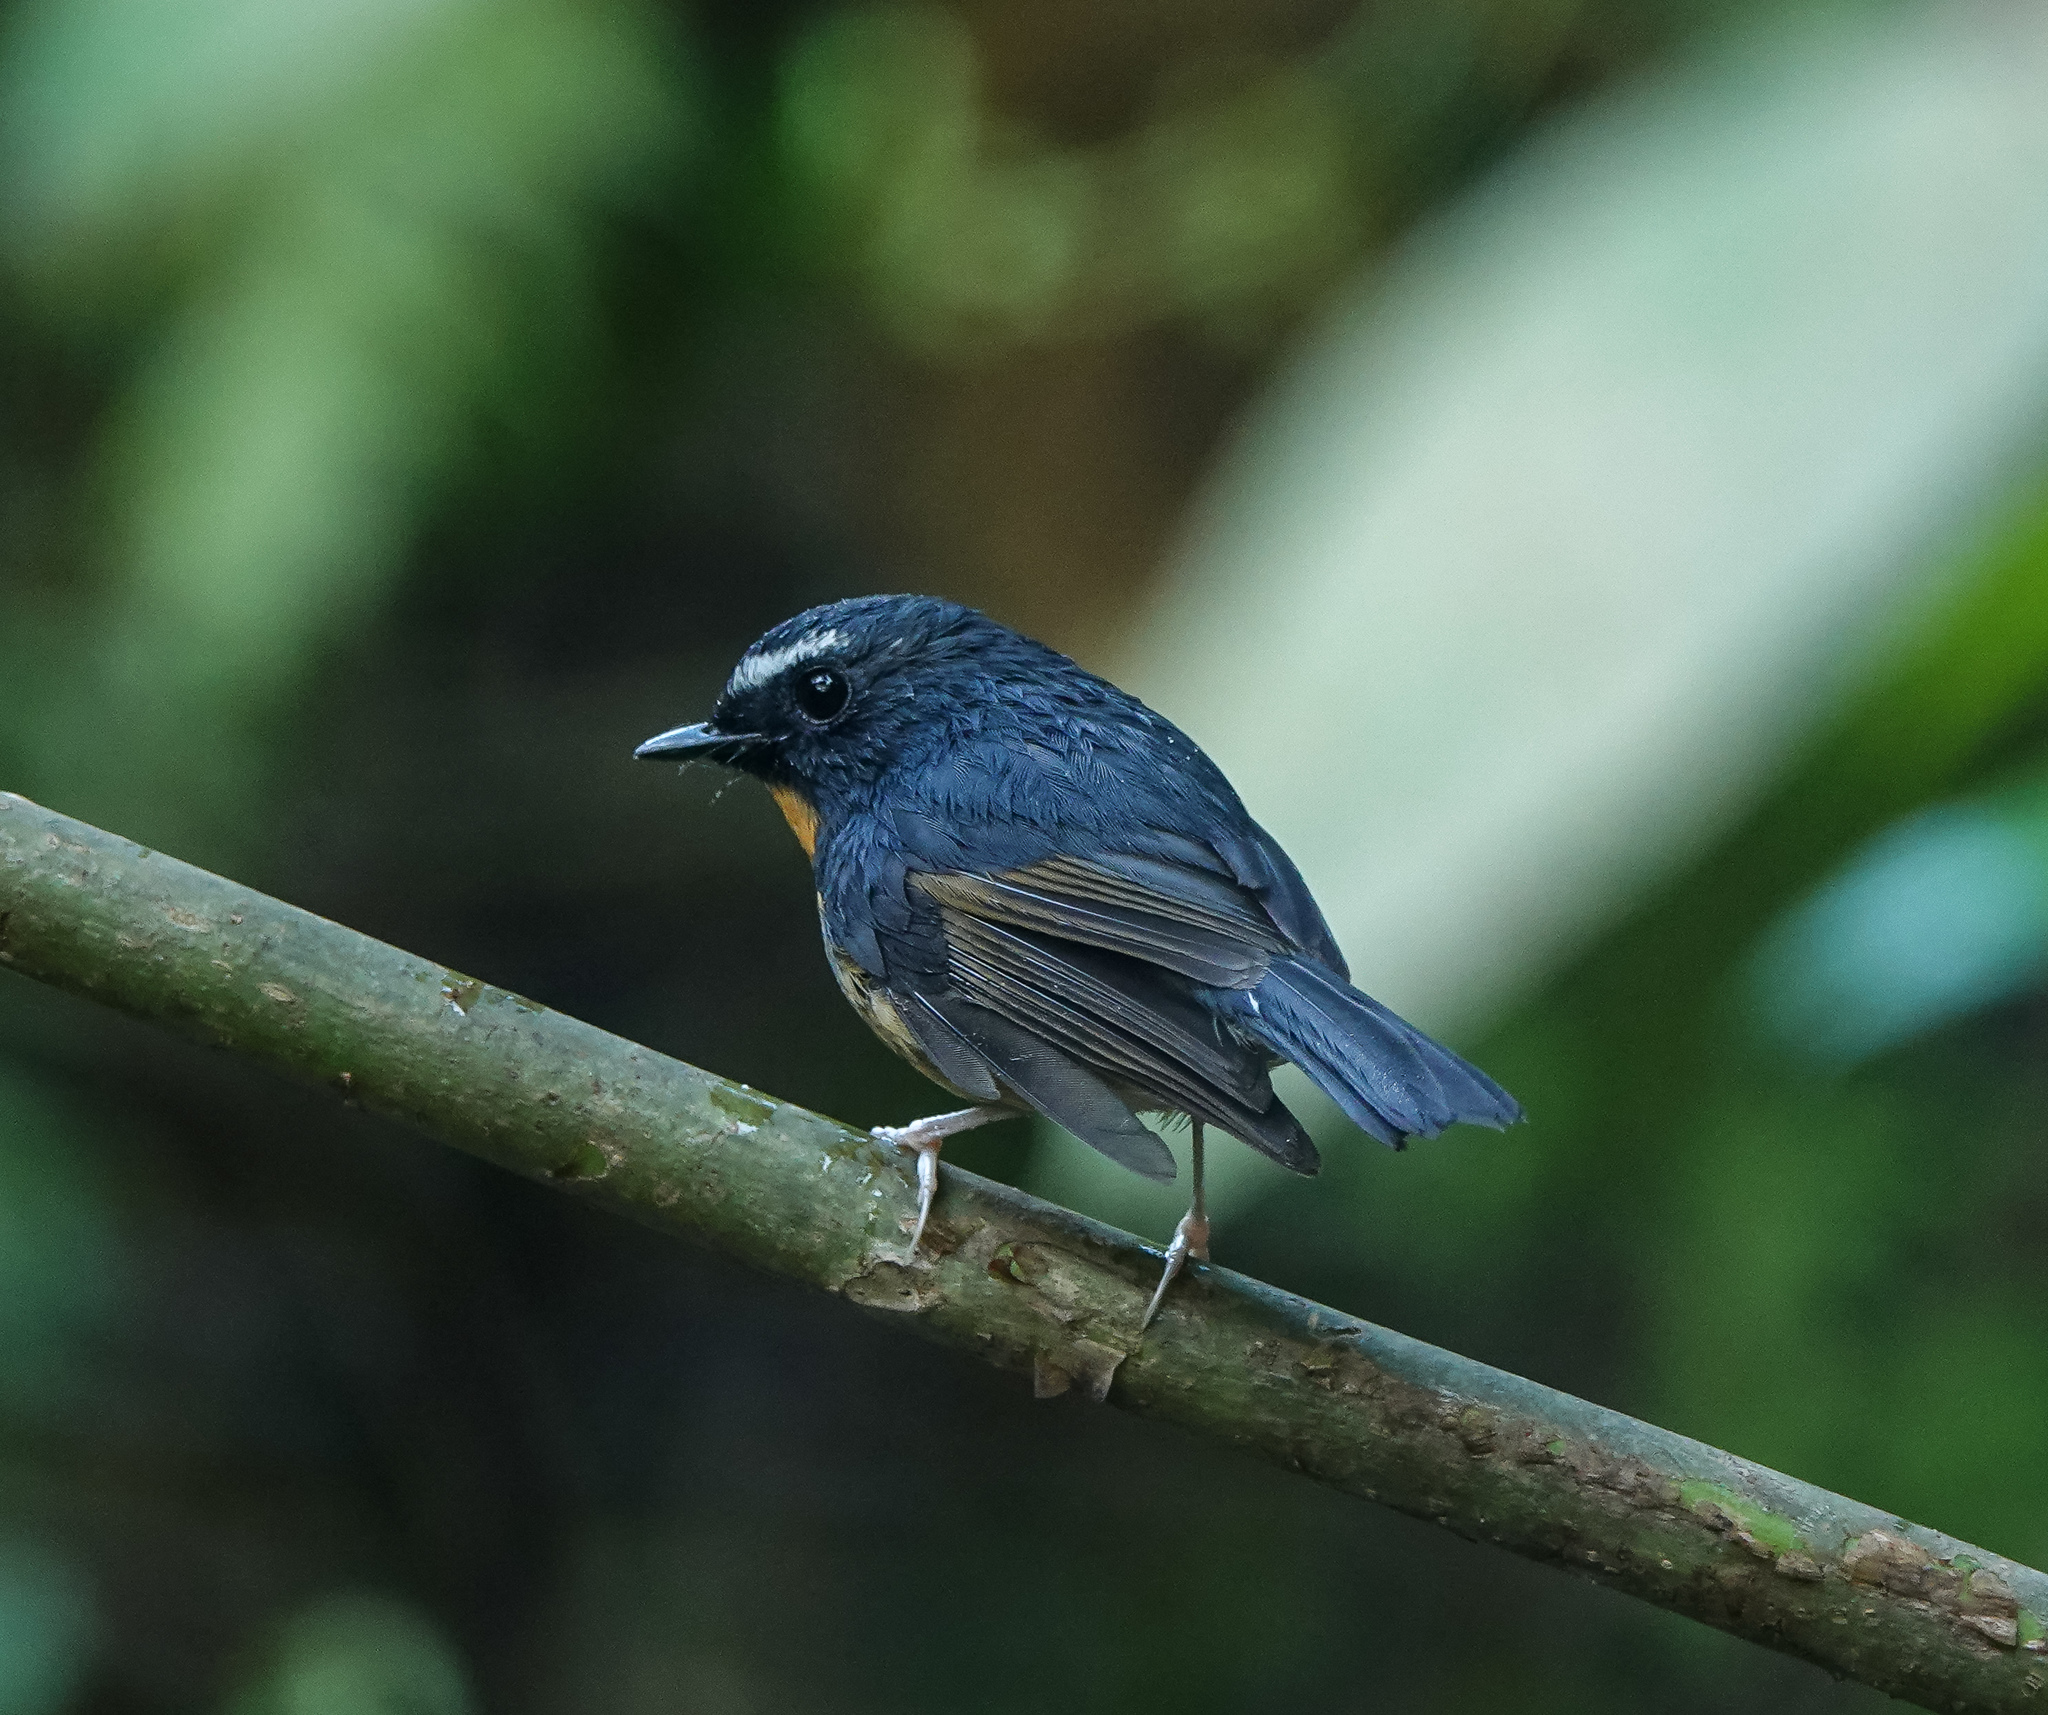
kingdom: Animalia
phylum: Chordata
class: Aves
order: Passeriformes
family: Muscicapidae
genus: Ficedula
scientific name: Ficedula hyperythra
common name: Snowy-browed flycatcher
